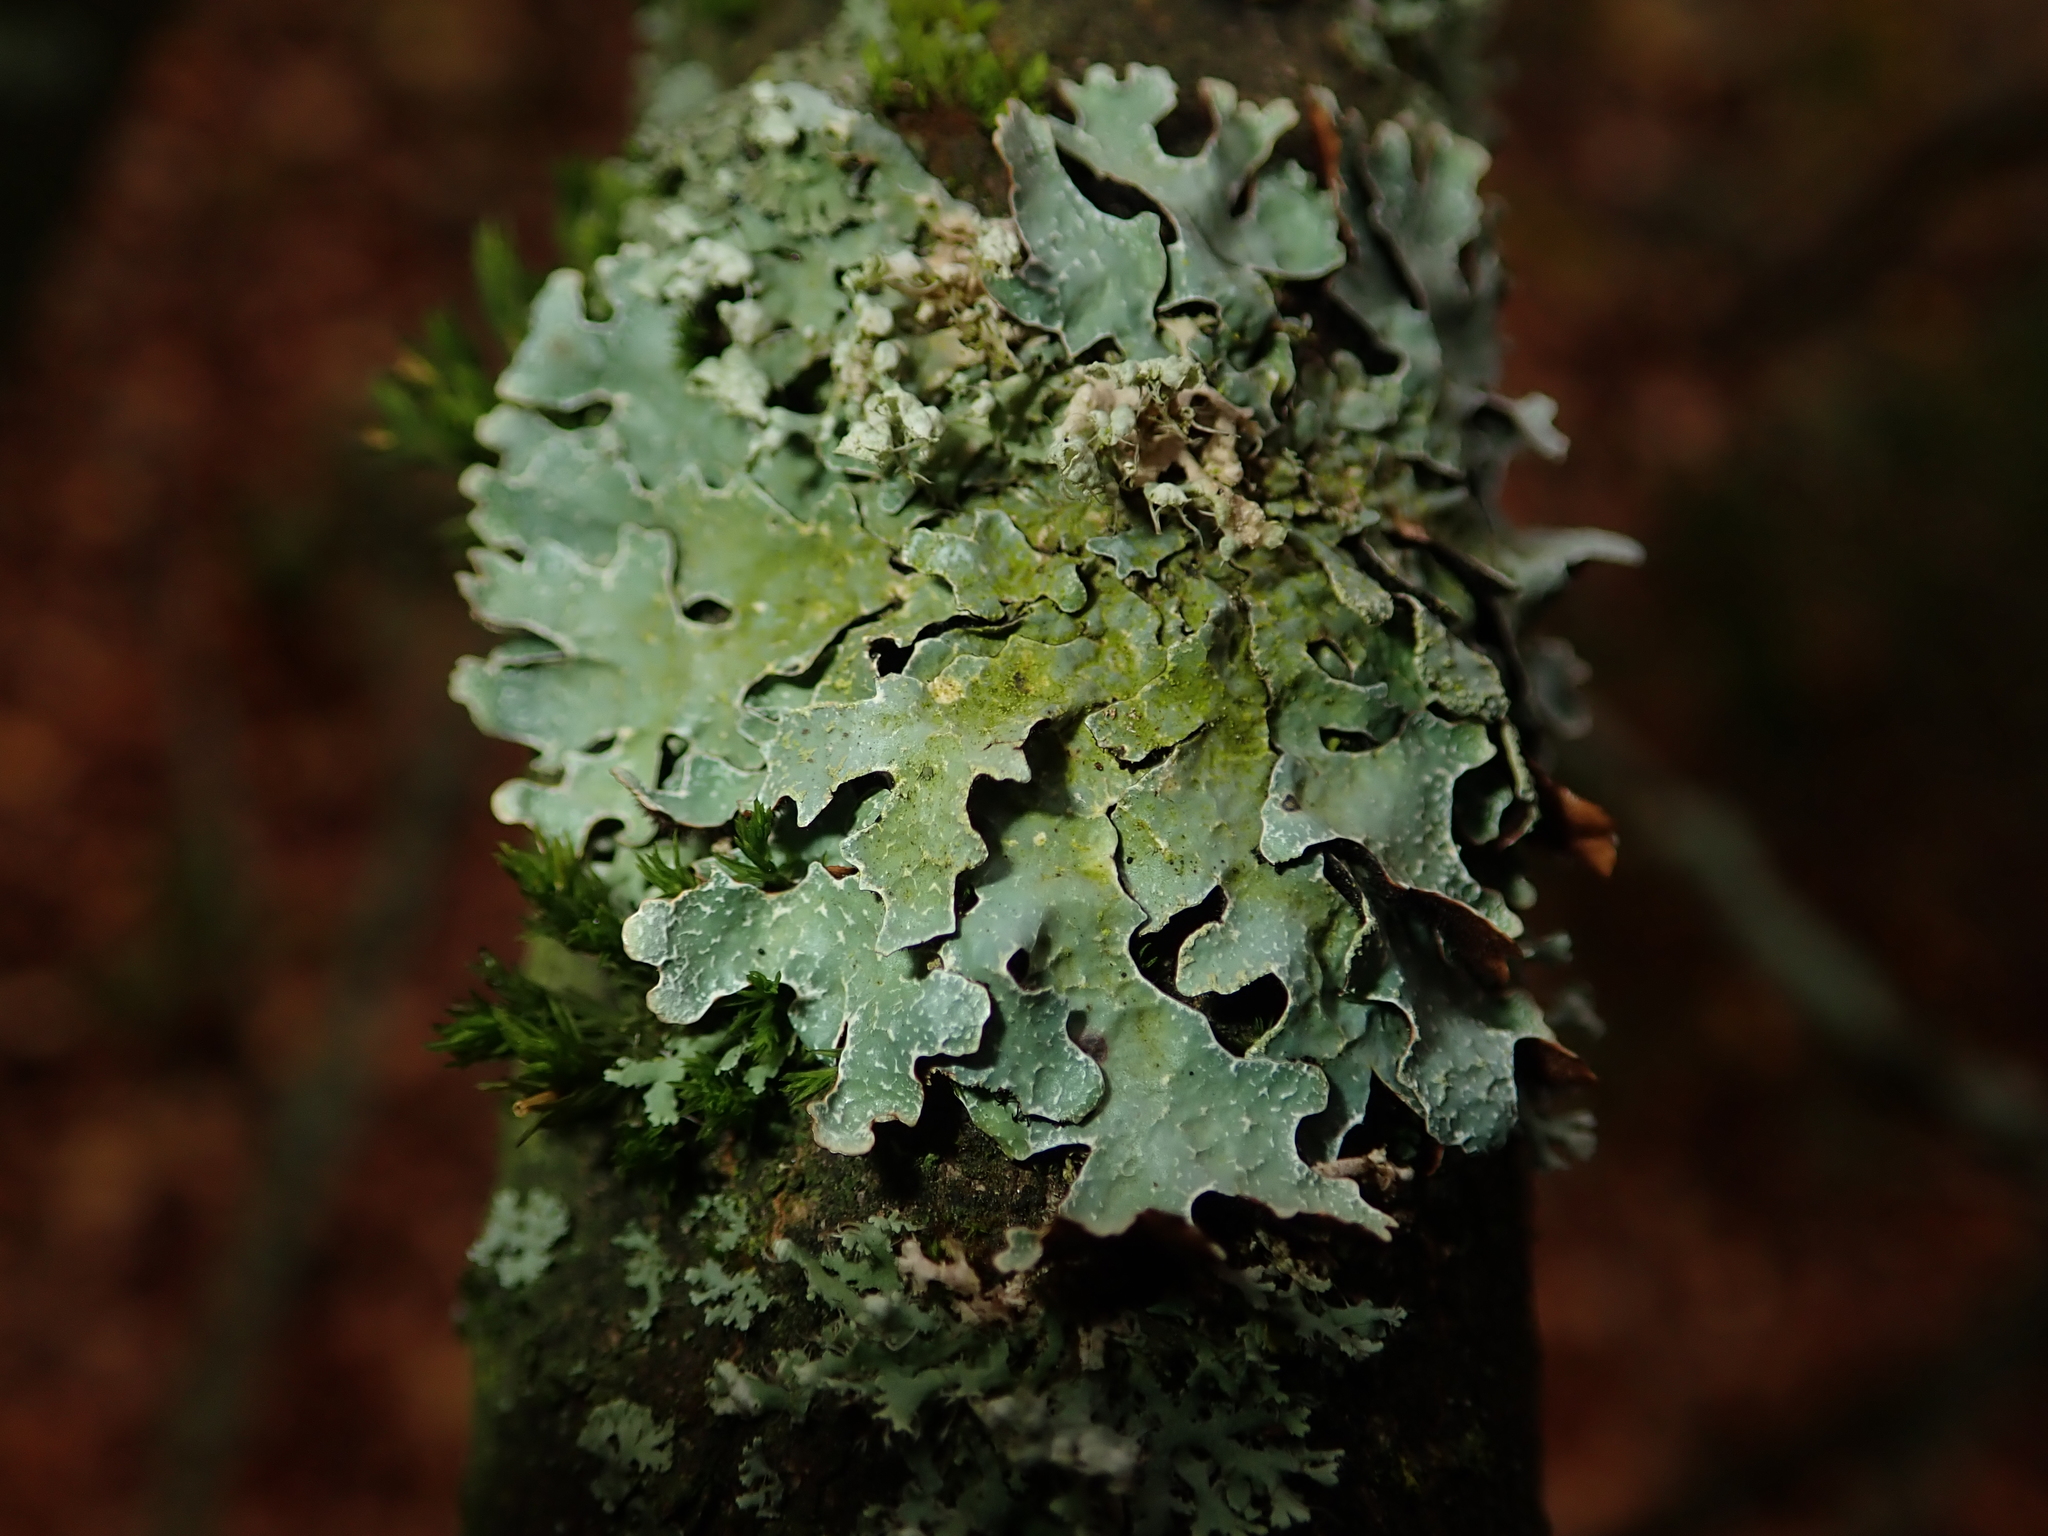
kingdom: Fungi
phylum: Ascomycota
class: Lecanoromycetes
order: Lecanorales
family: Parmeliaceae
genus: Parmelia
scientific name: Parmelia sulcata
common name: Netted shield lichen
